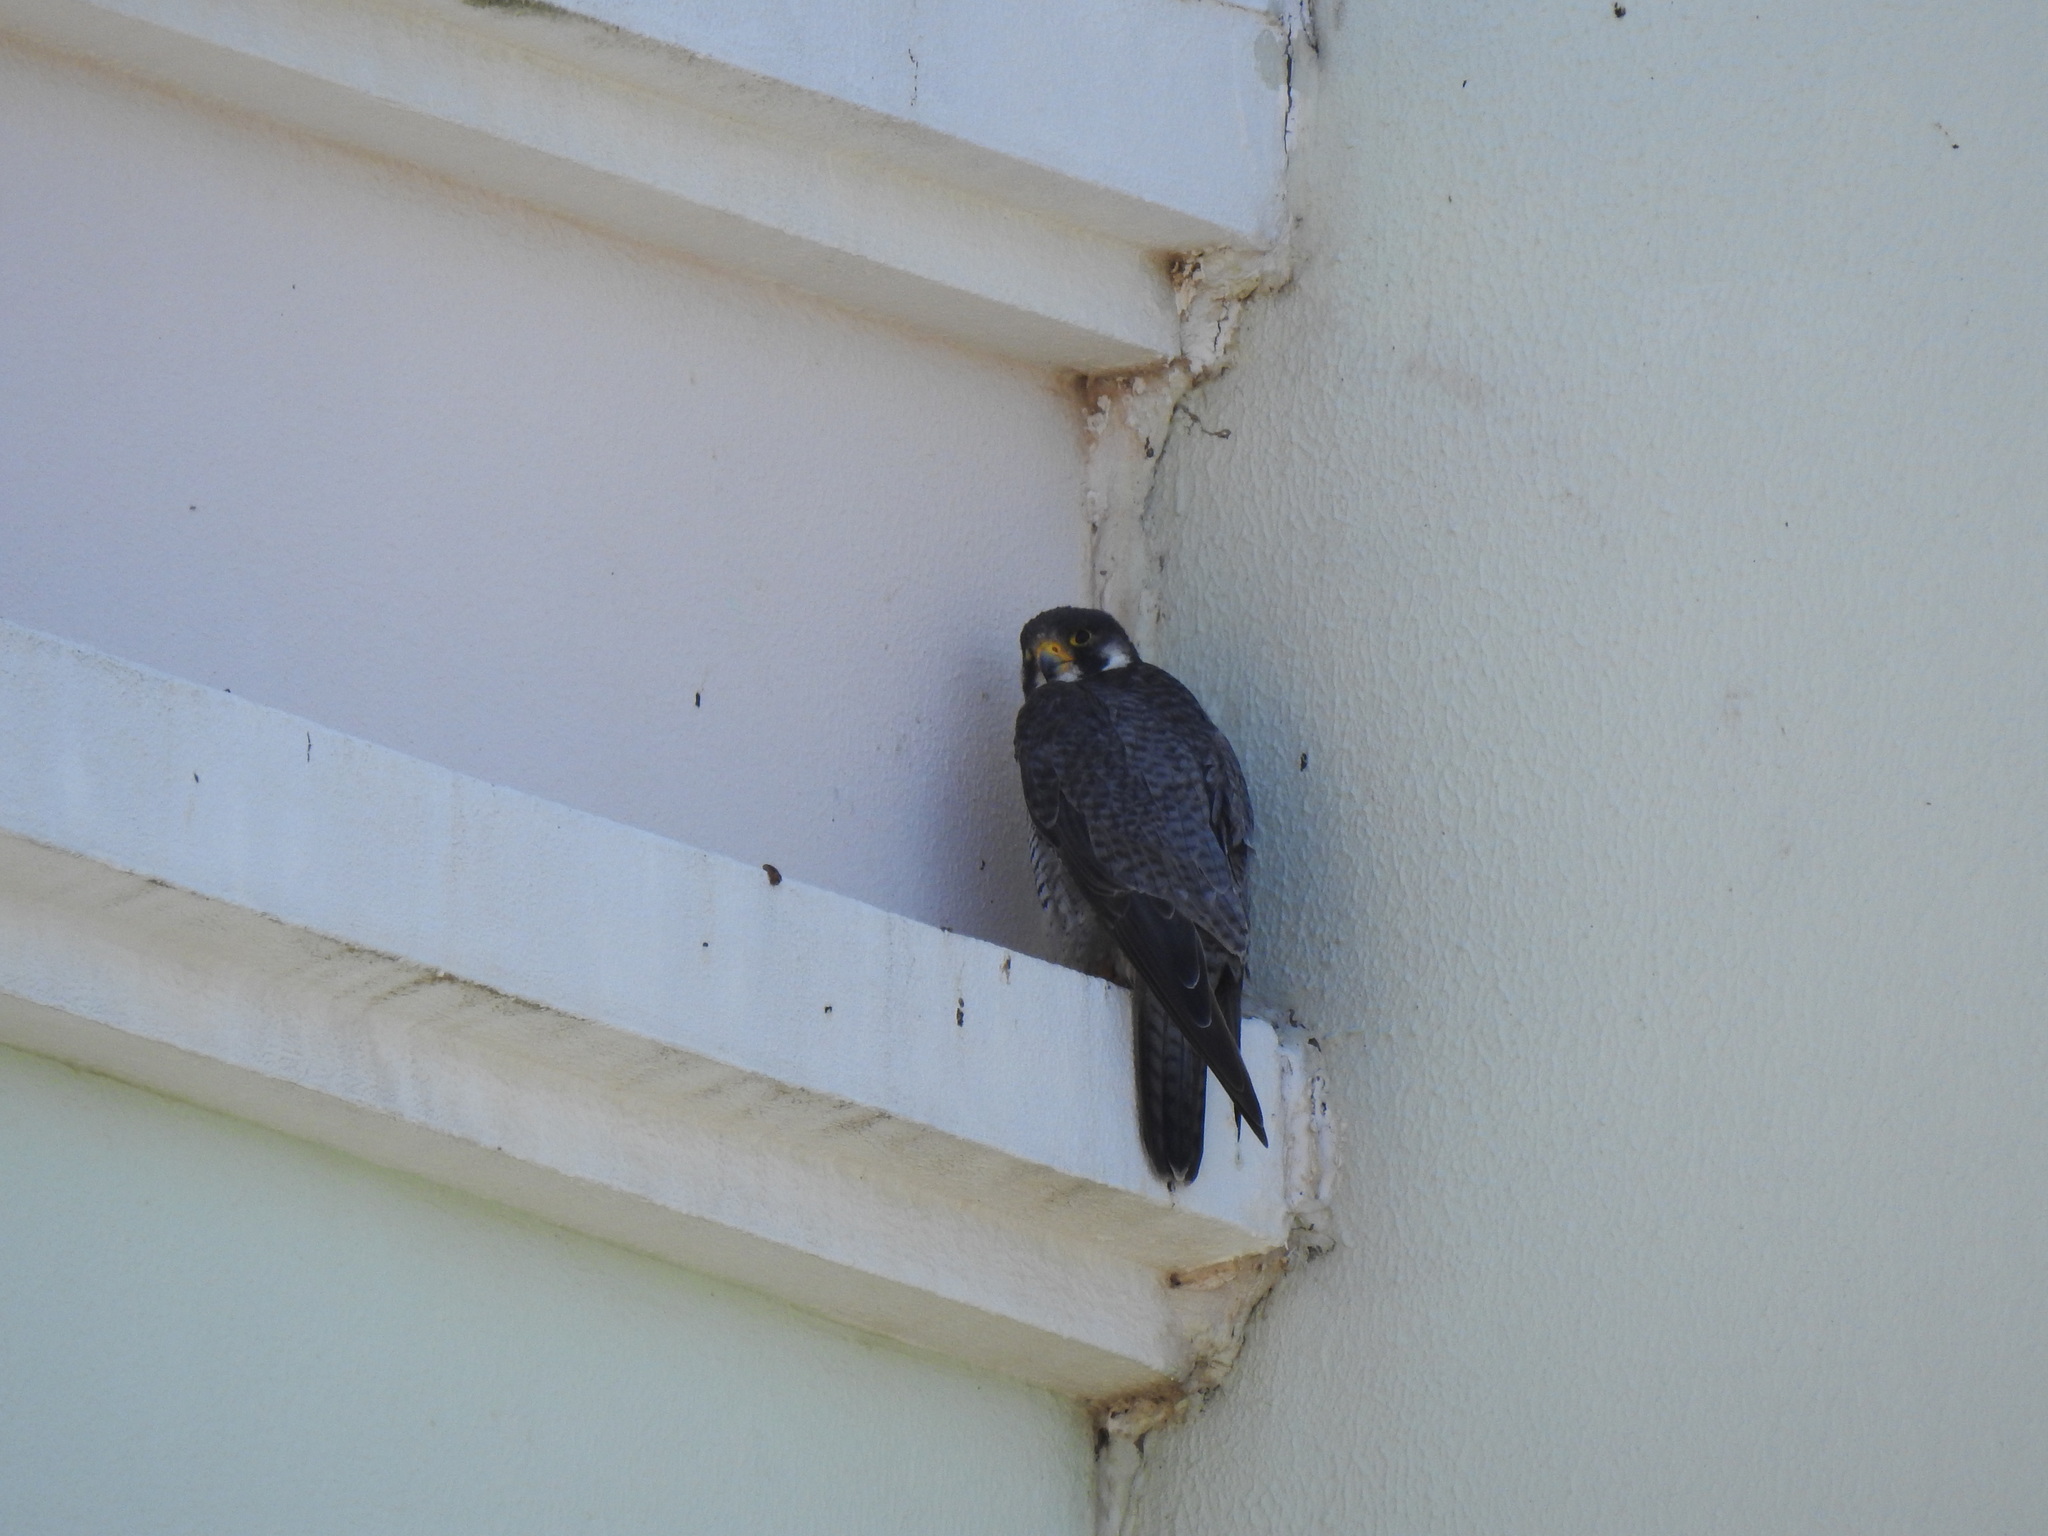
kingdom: Animalia
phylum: Chordata
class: Aves
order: Falconiformes
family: Falconidae
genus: Falco
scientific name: Falco peregrinus
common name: Peregrine falcon
